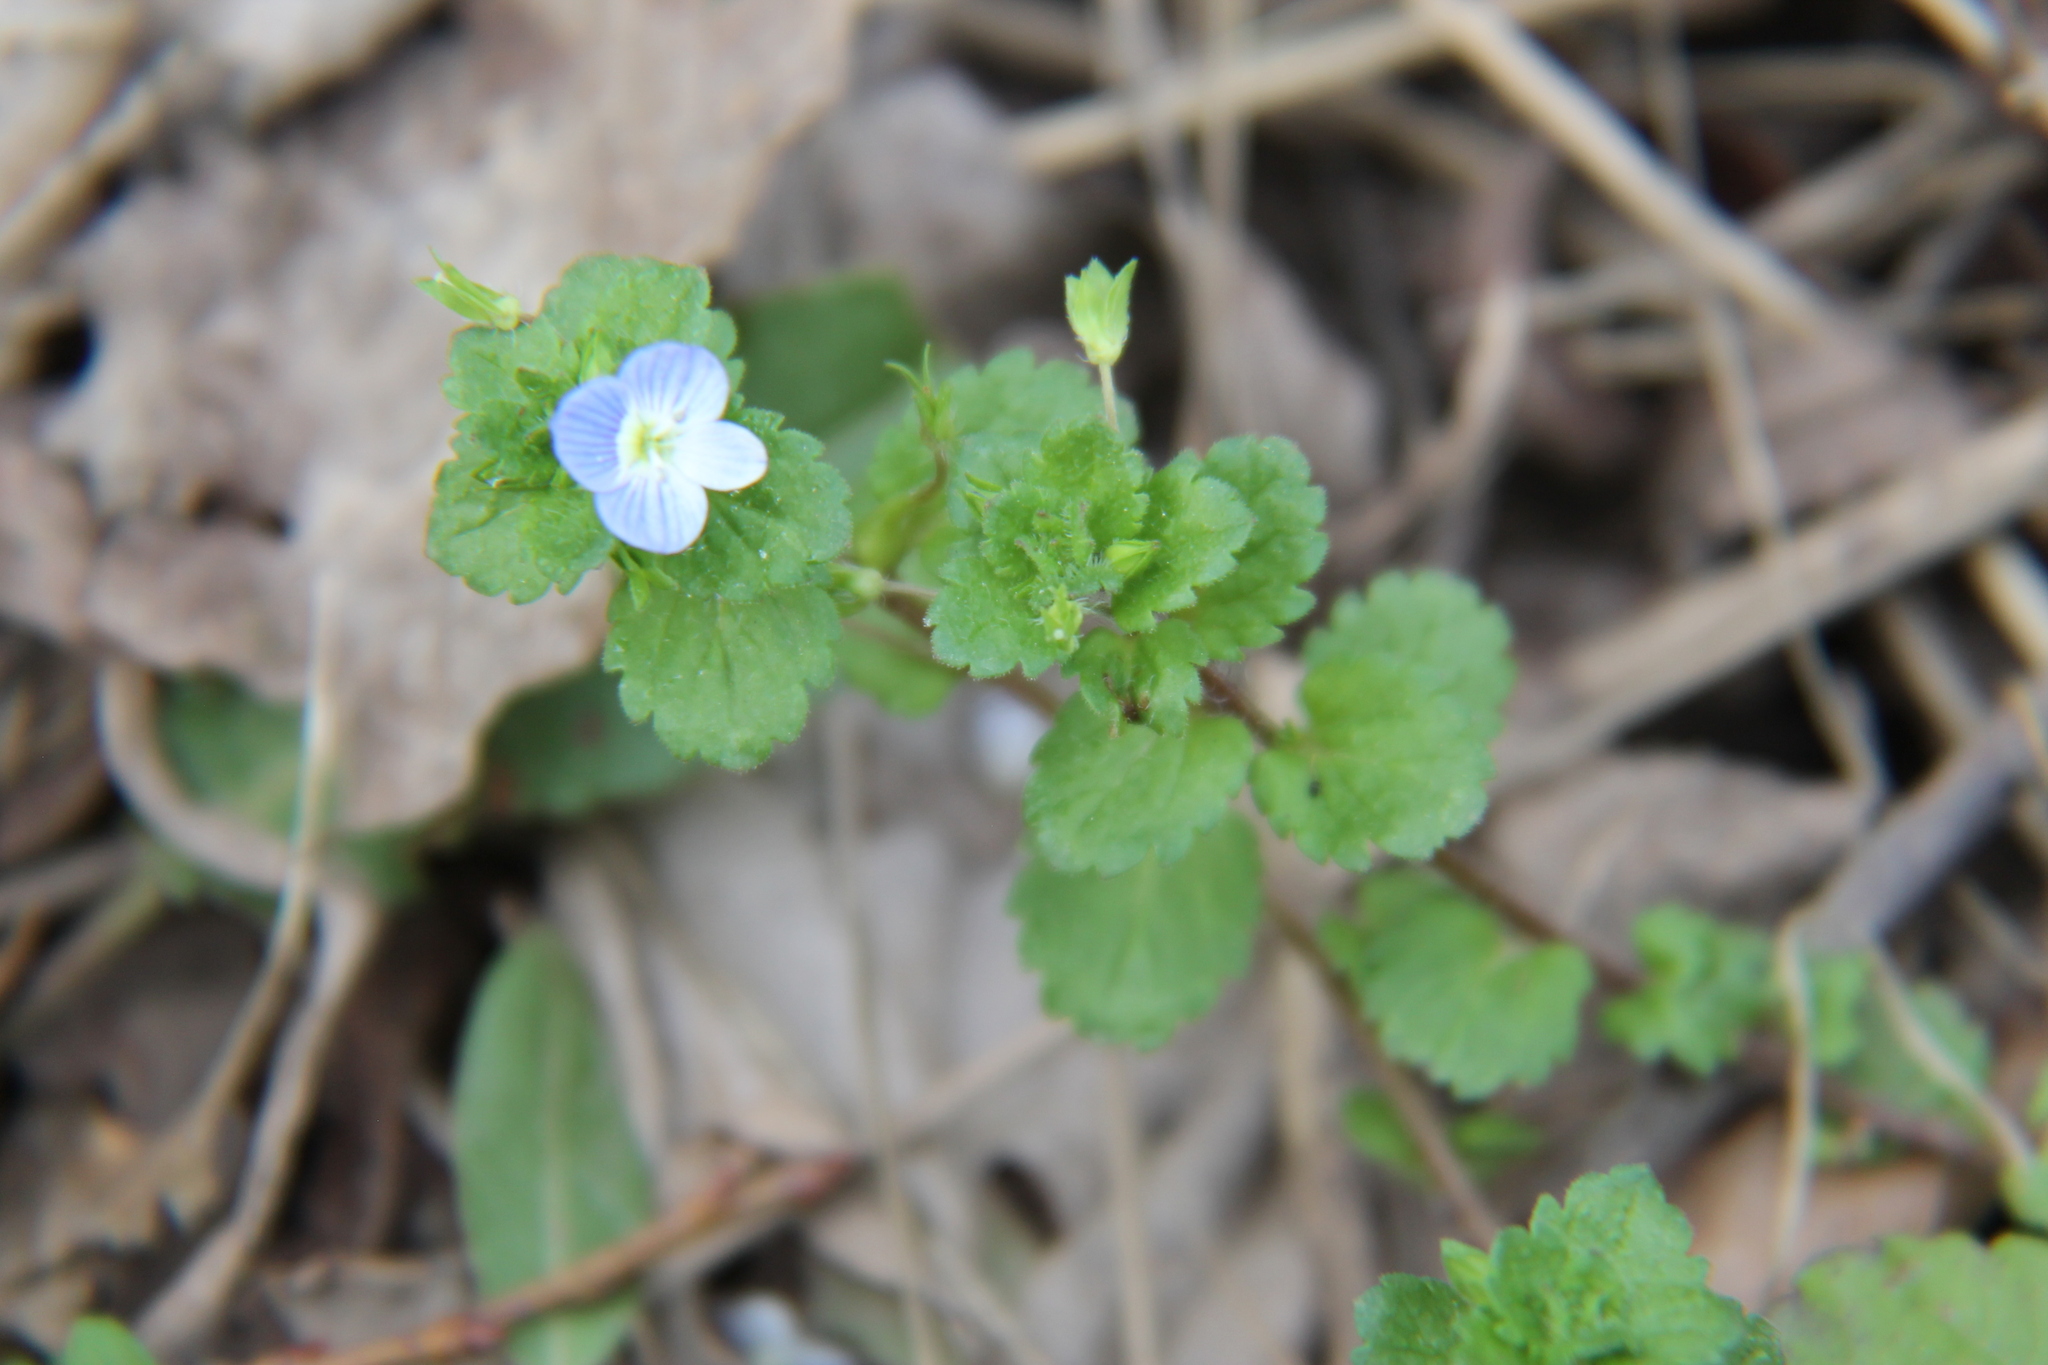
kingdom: Plantae
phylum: Tracheophyta
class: Magnoliopsida
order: Lamiales
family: Plantaginaceae
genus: Veronica
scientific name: Veronica persica
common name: Common field-speedwell
